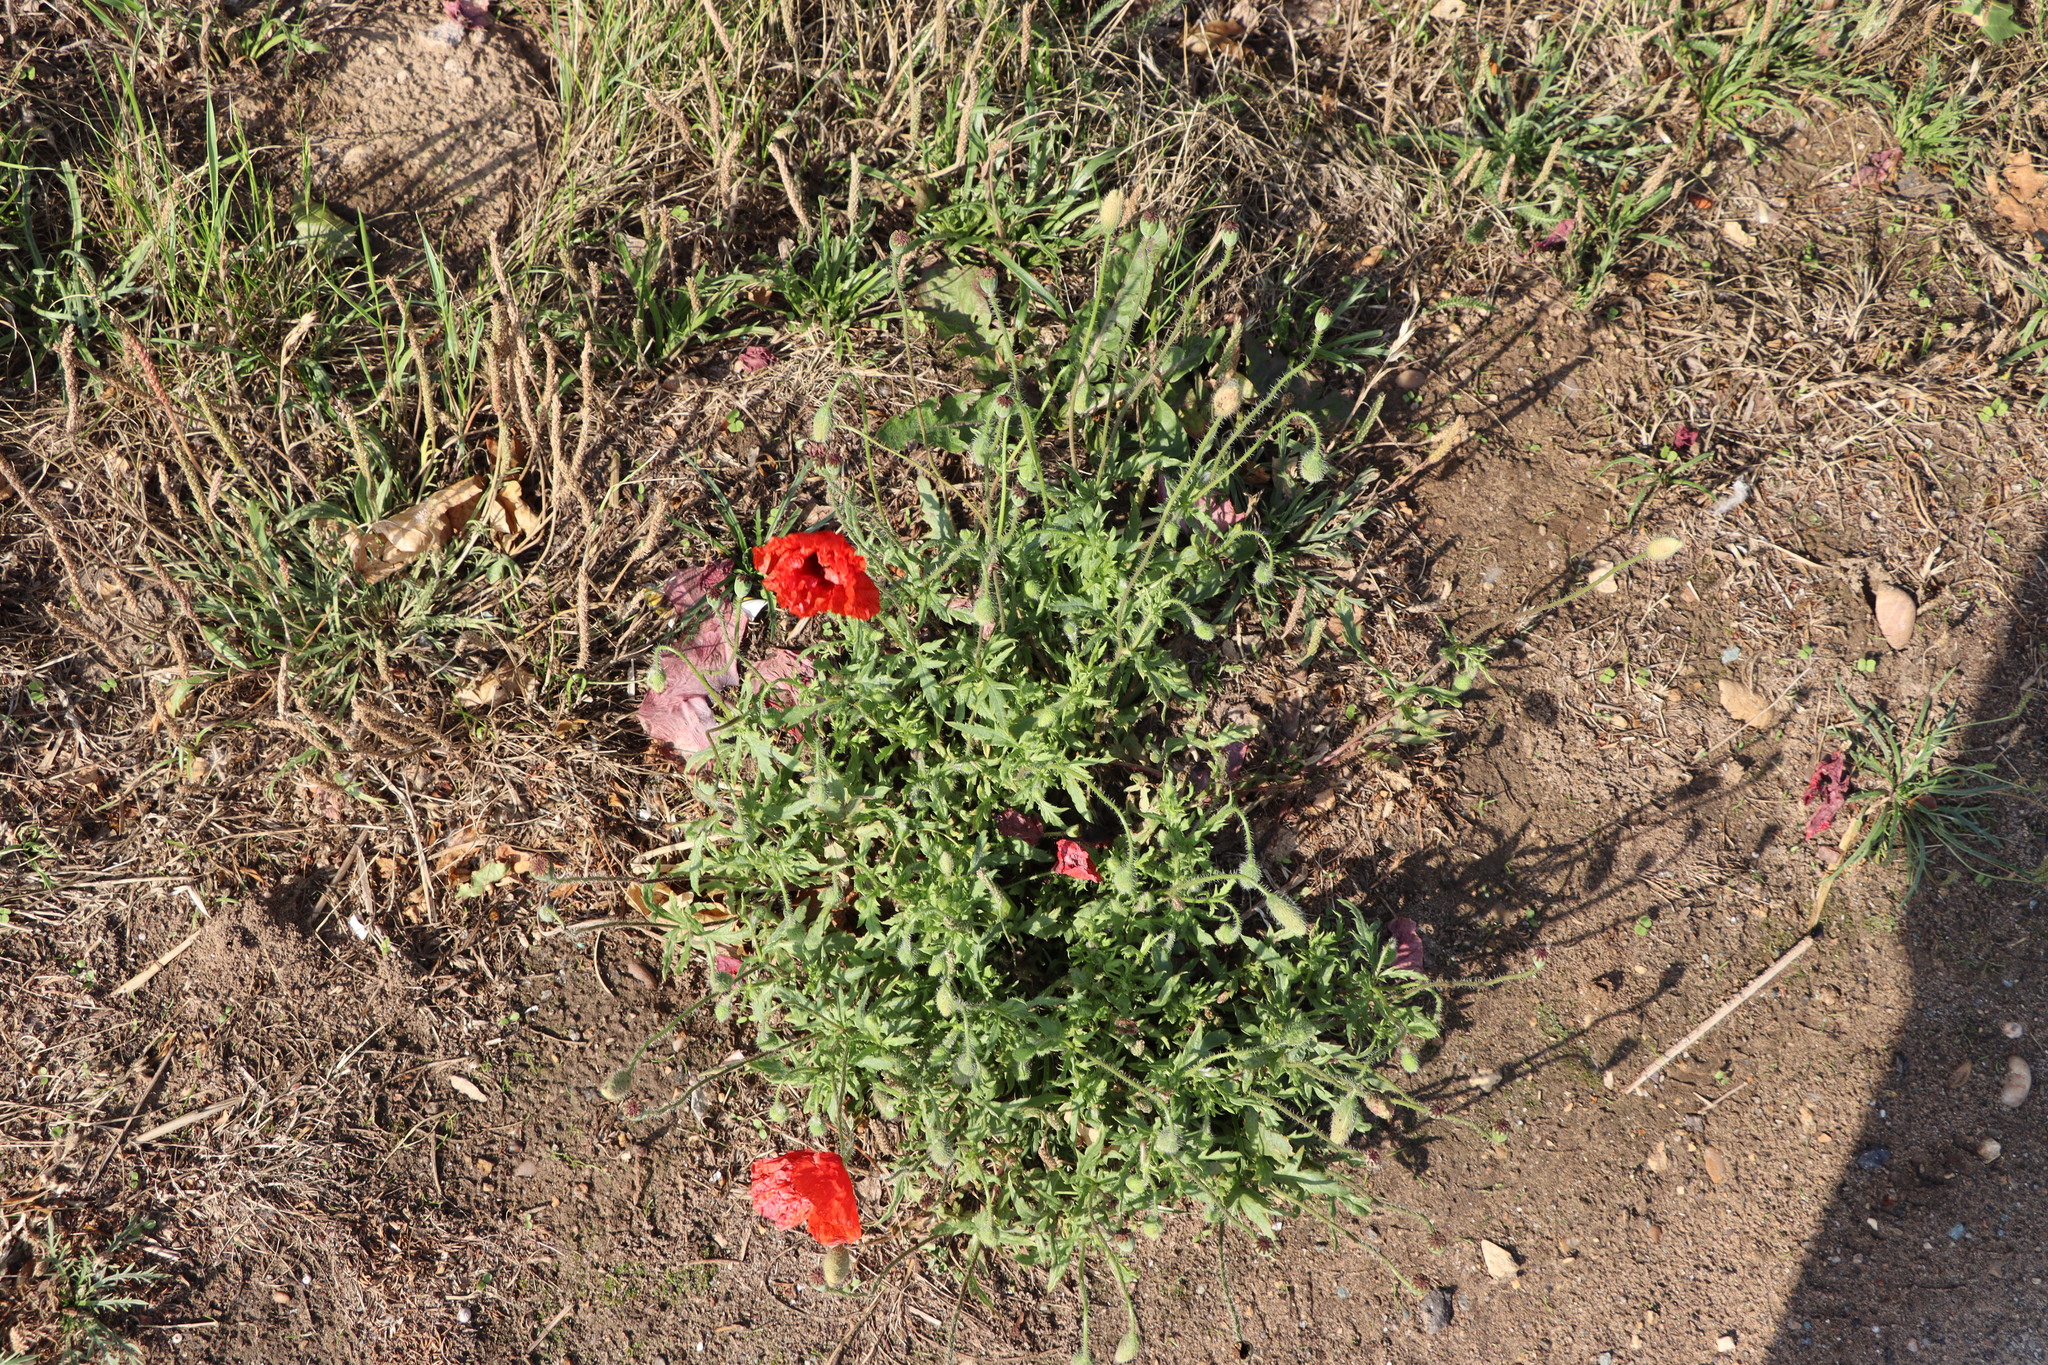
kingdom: Plantae
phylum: Tracheophyta
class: Magnoliopsida
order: Ranunculales
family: Papaveraceae
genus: Papaver
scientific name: Papaver rhoeas
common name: Corn poppy
